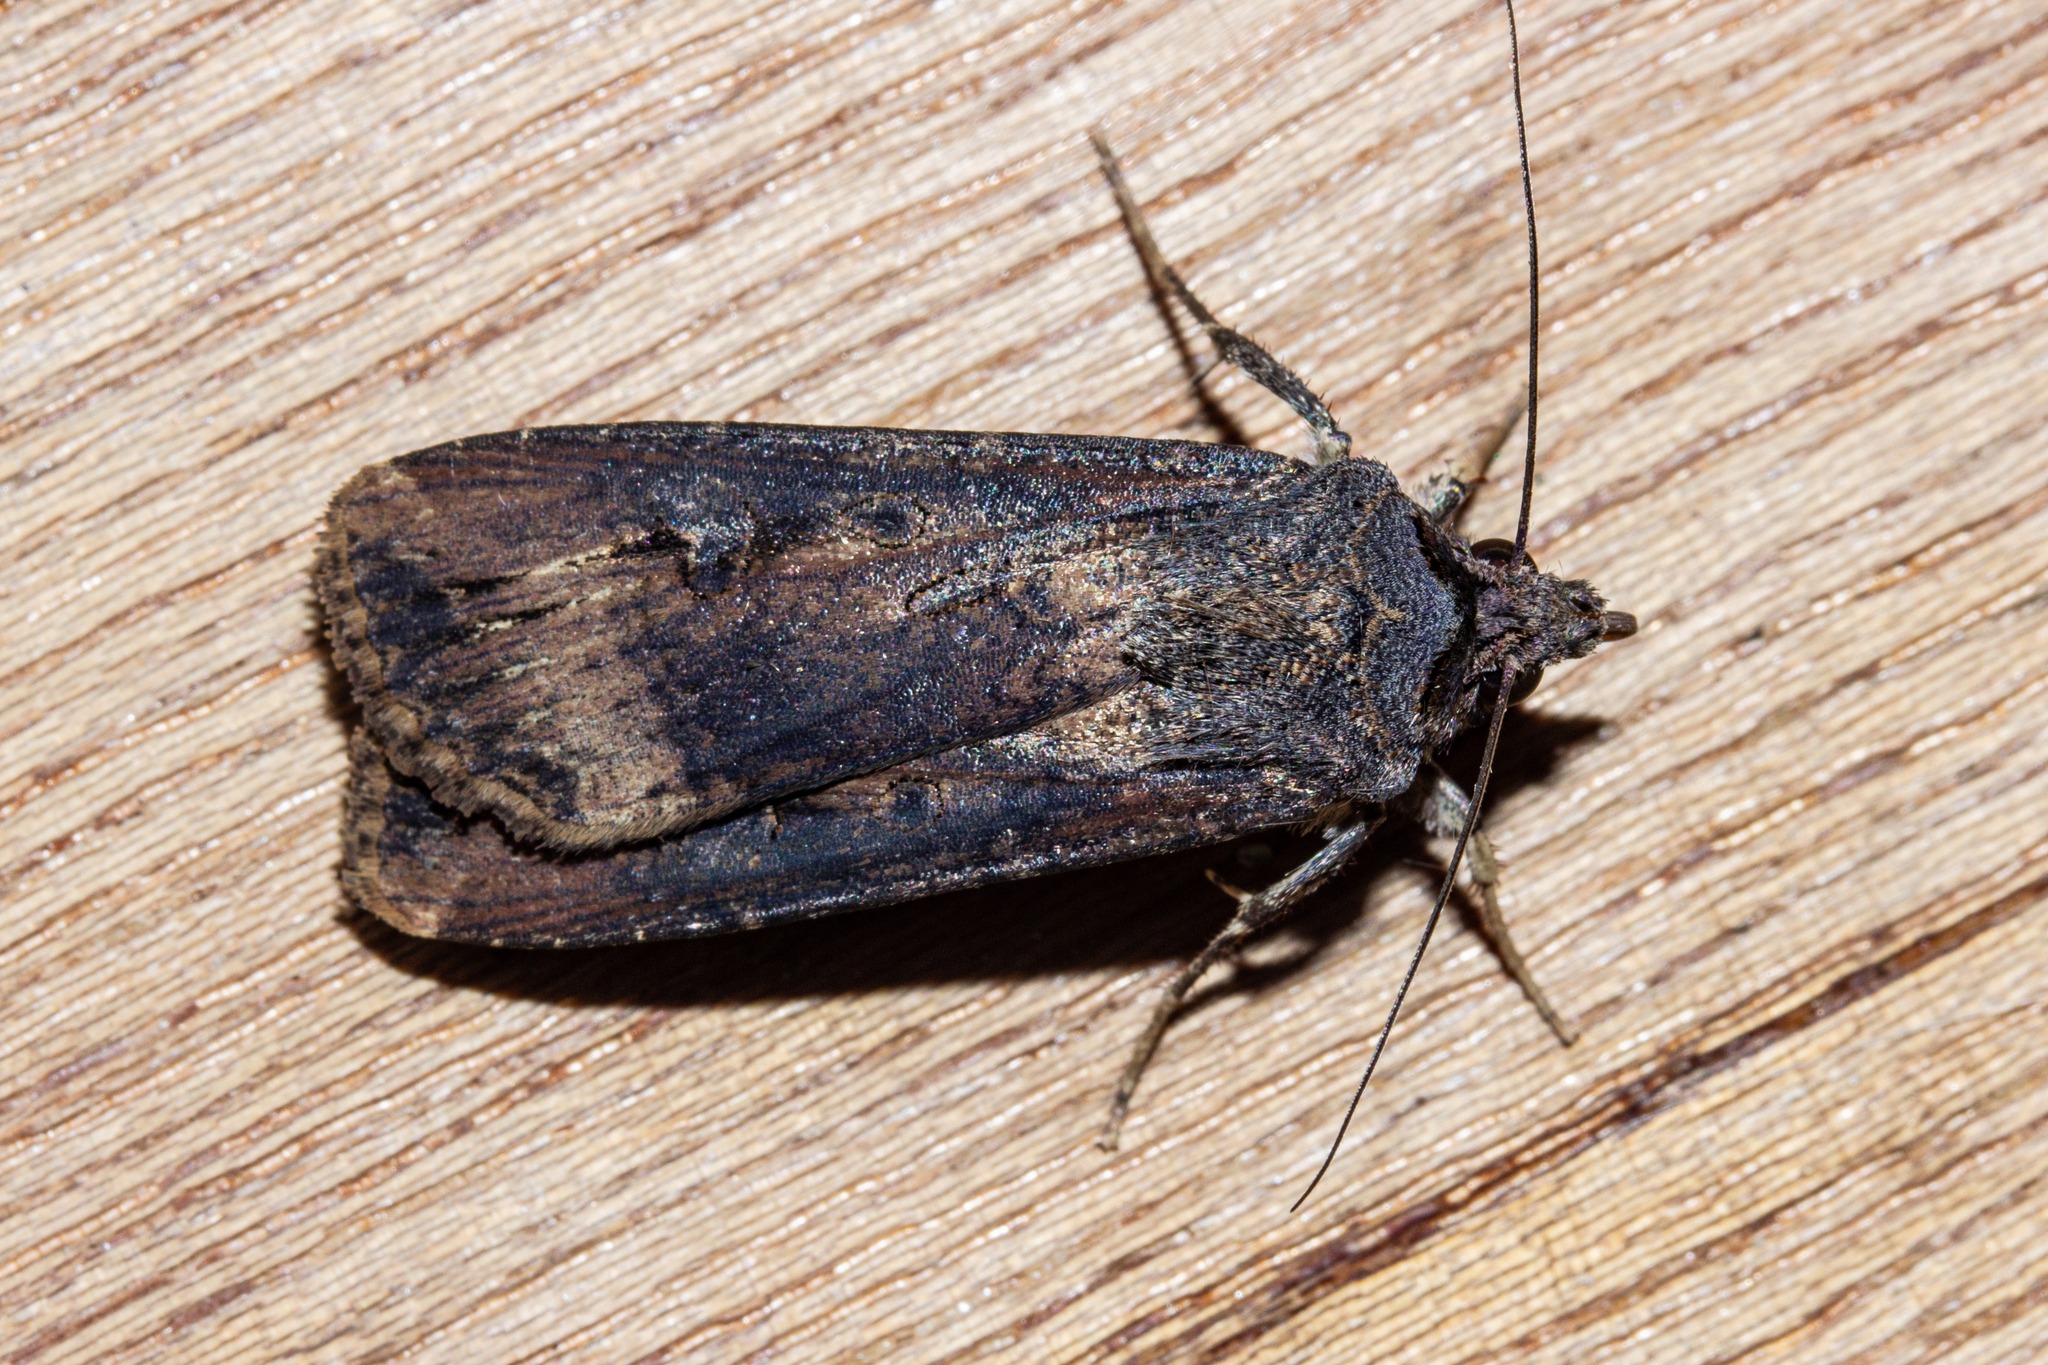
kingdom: Animalia
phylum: Arthropoda
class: Insecta
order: Lepidoptera
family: Noctuidae
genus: Agrotis
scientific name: Agrotis ipsilon
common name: Dark sword-grass
